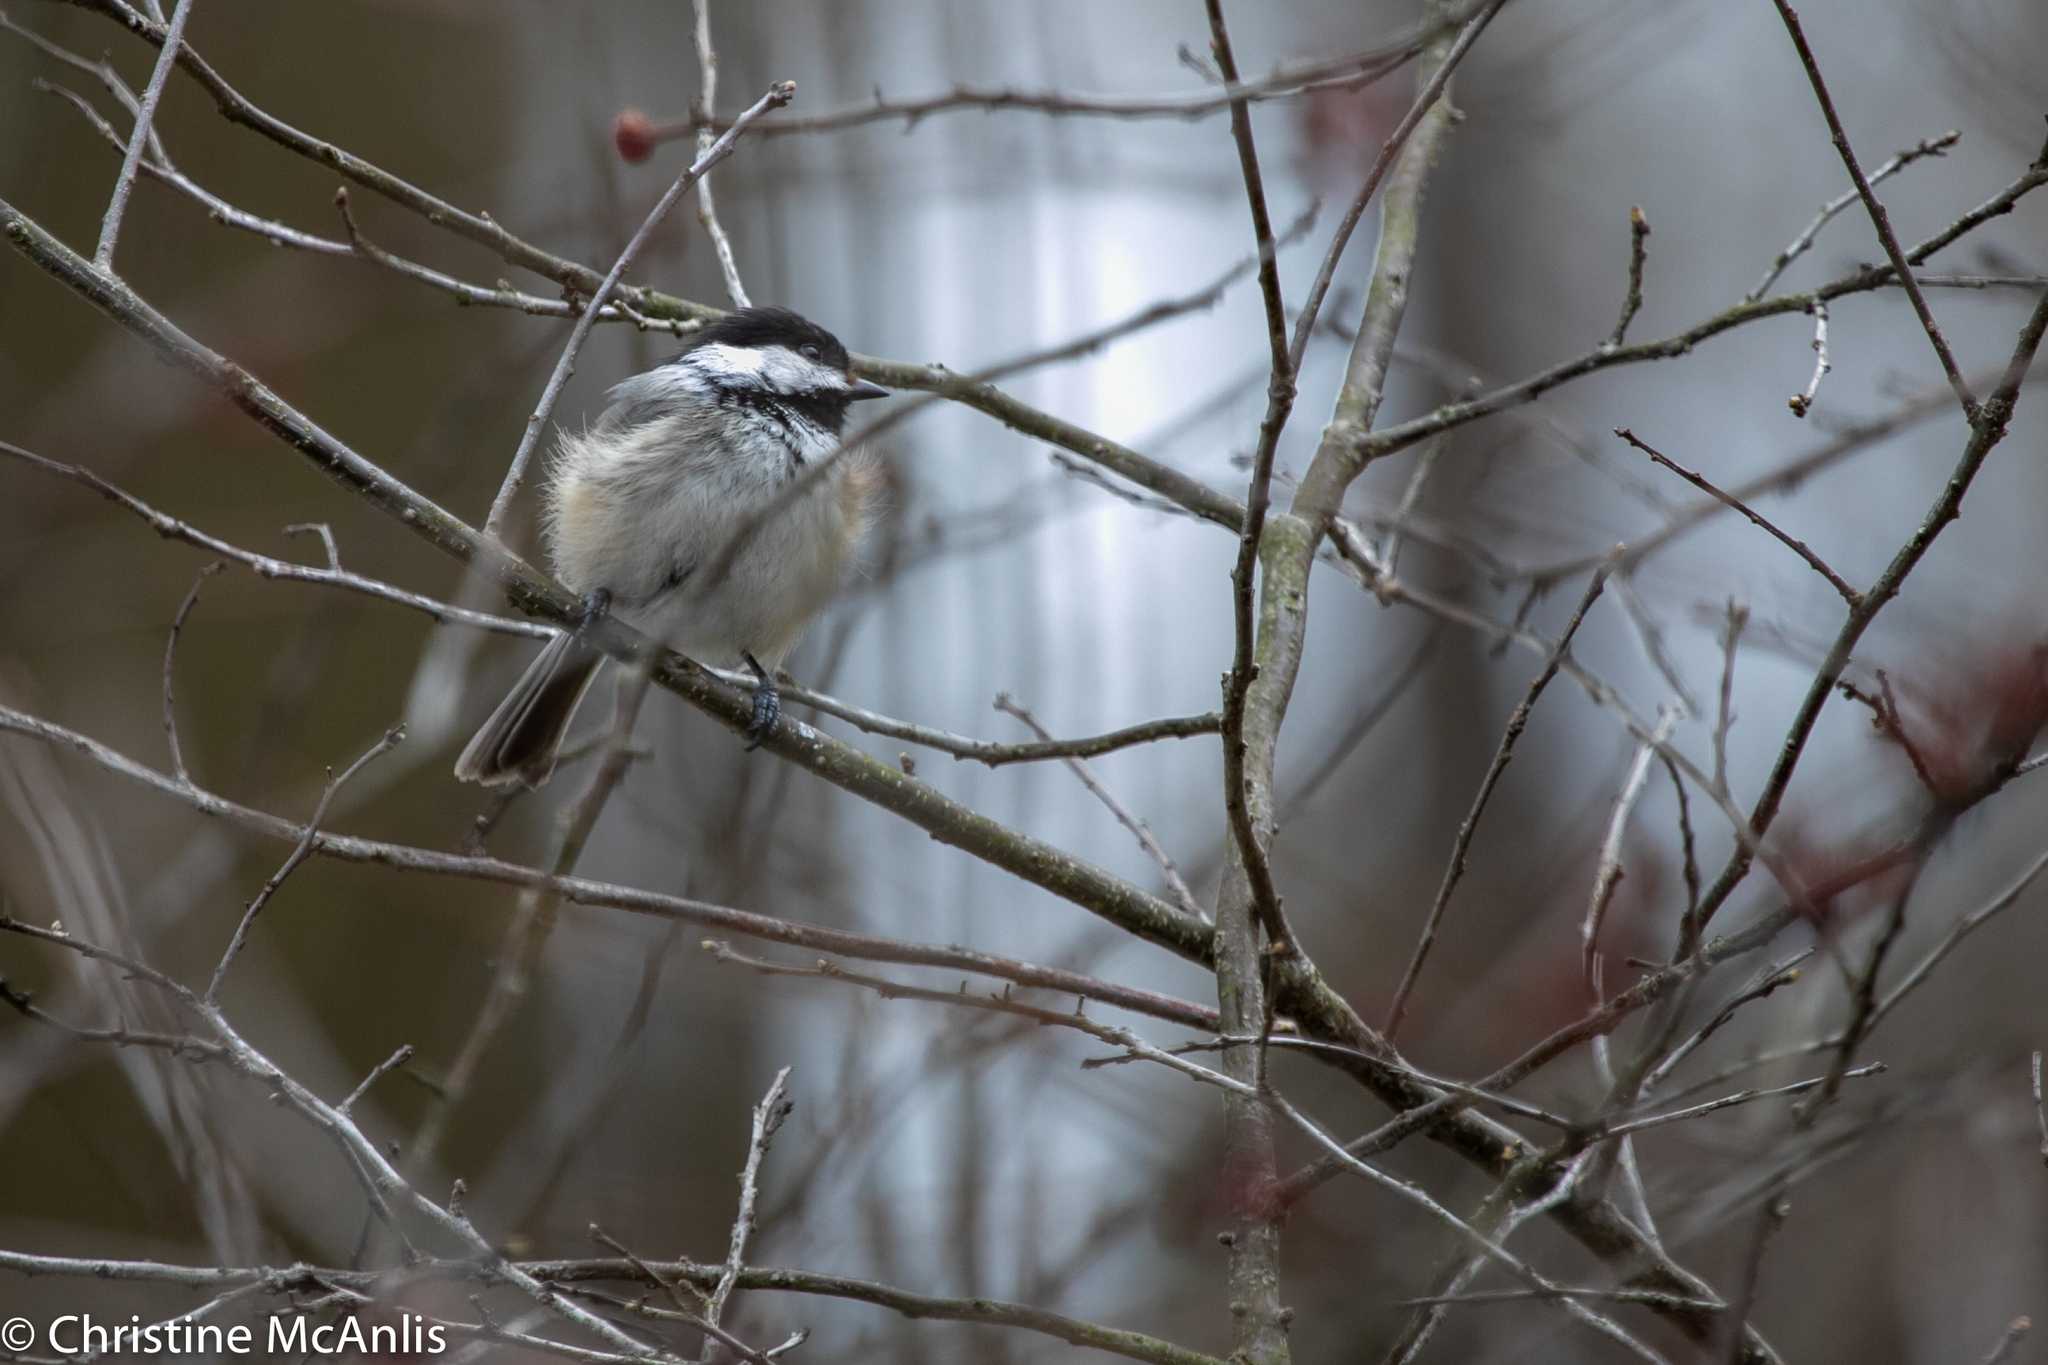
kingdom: Animalia
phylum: Chordata
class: Aves
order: Passeriformes
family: Paridae
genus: Poecile
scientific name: Poecile atricapillus
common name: Black-capped chickadee
